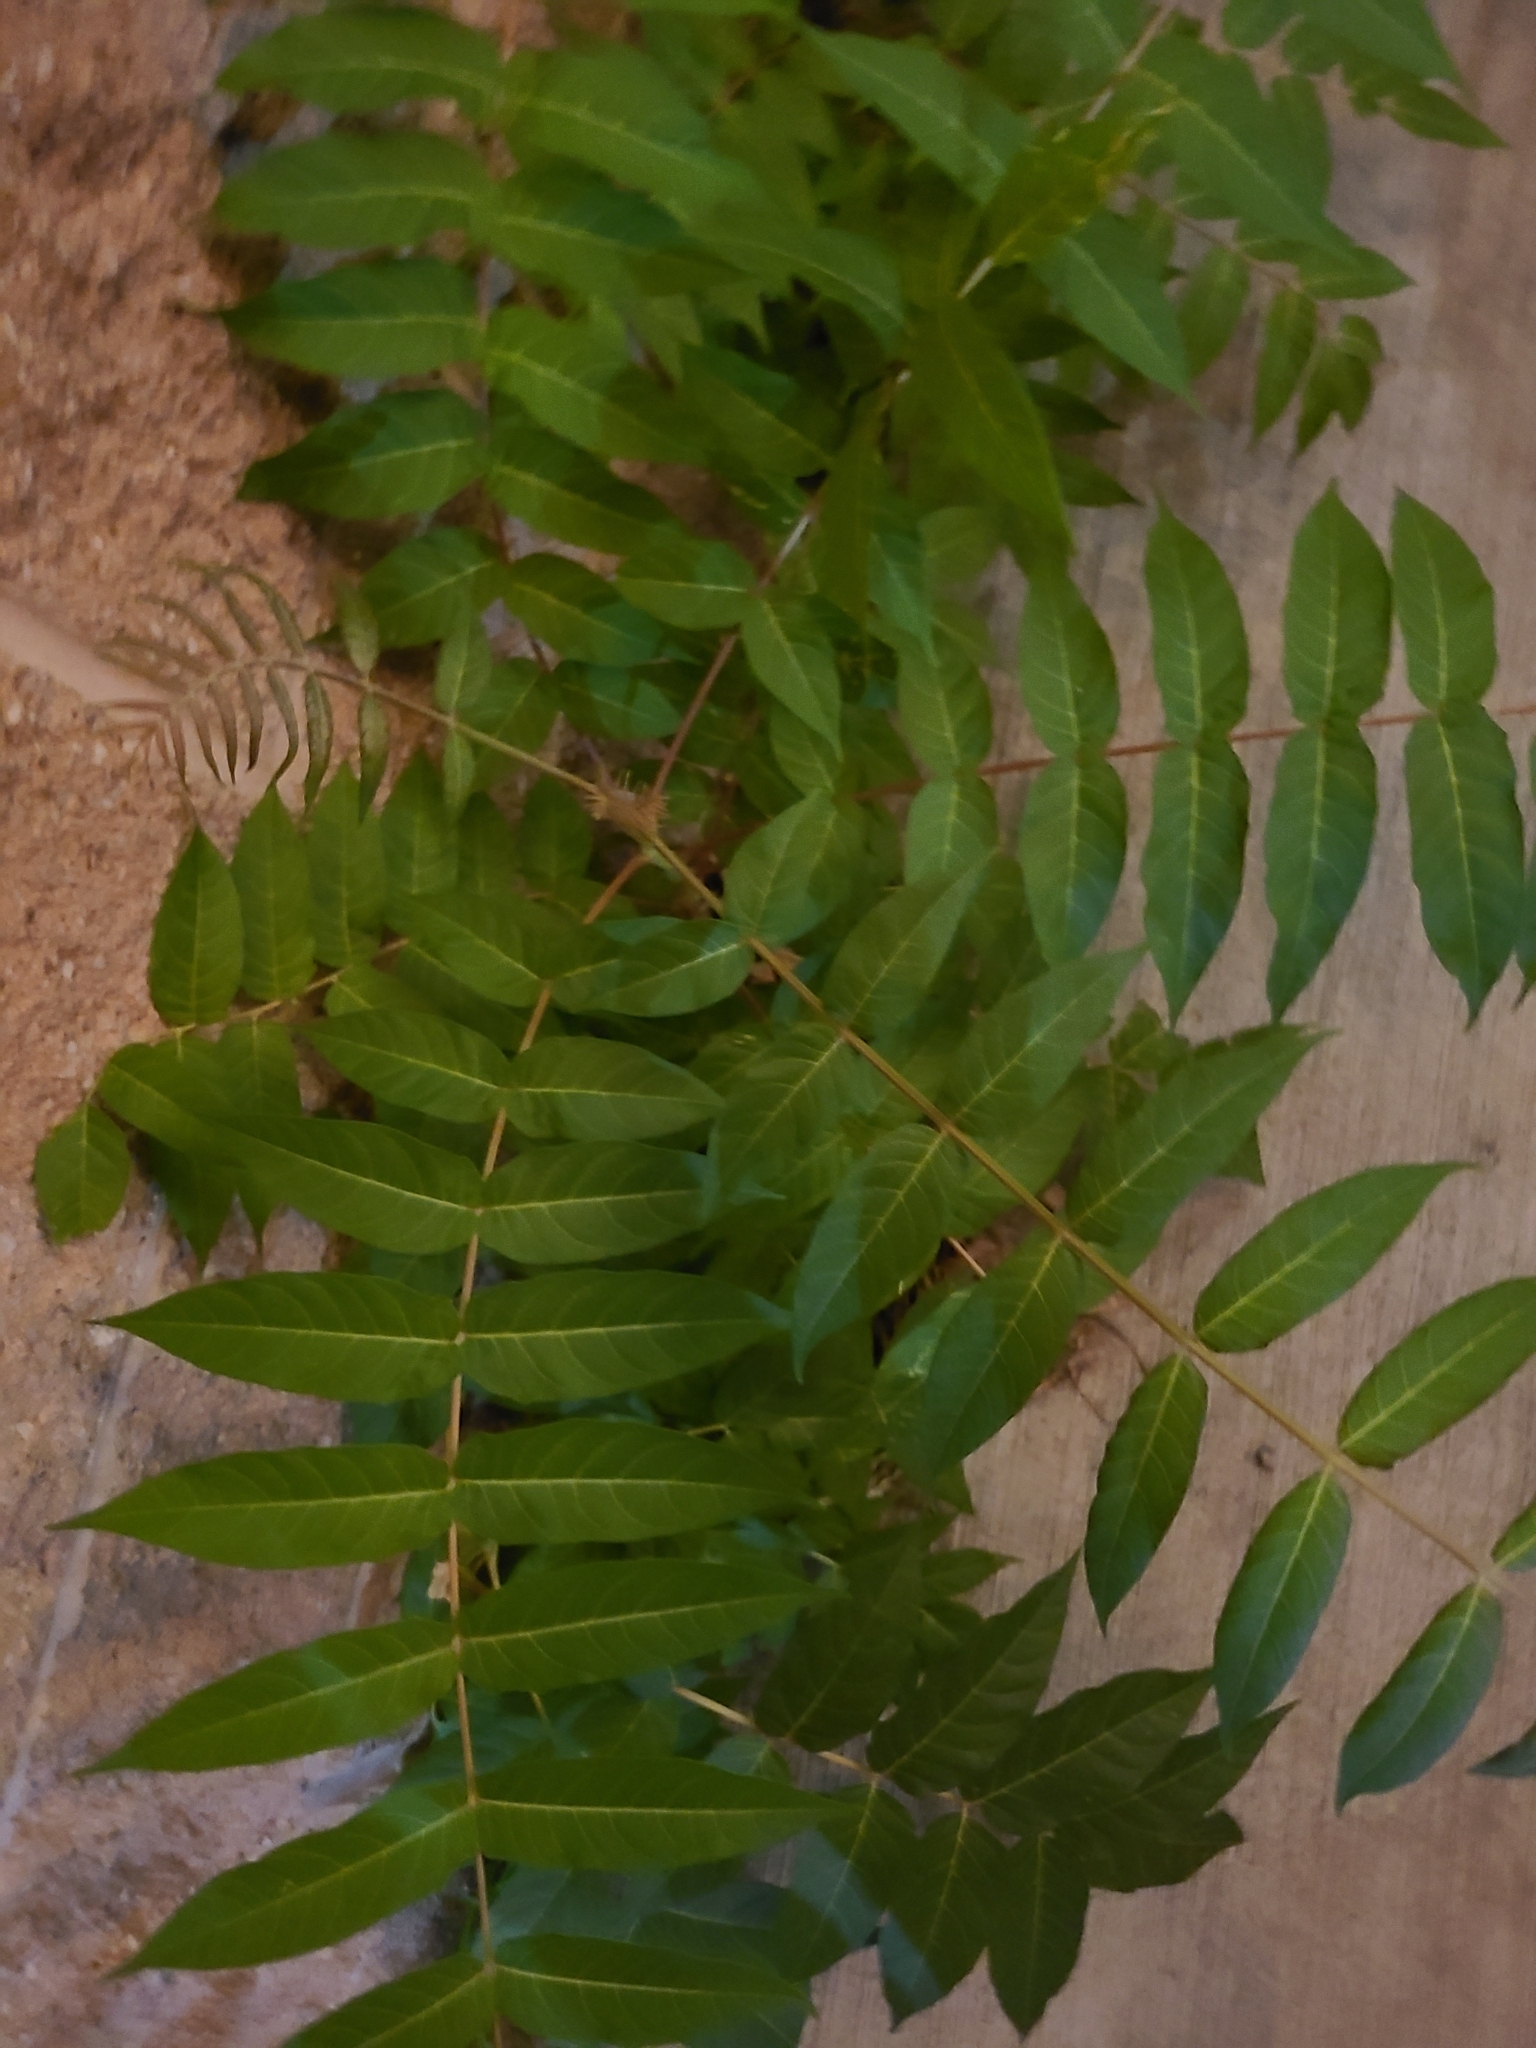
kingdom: Plantae
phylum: Tracheophyta
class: Magnoliopsida
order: Sapindales
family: Simaroubaceae
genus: Ailanthus
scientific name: Ailanthus altissima
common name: Tree-of-heaven
